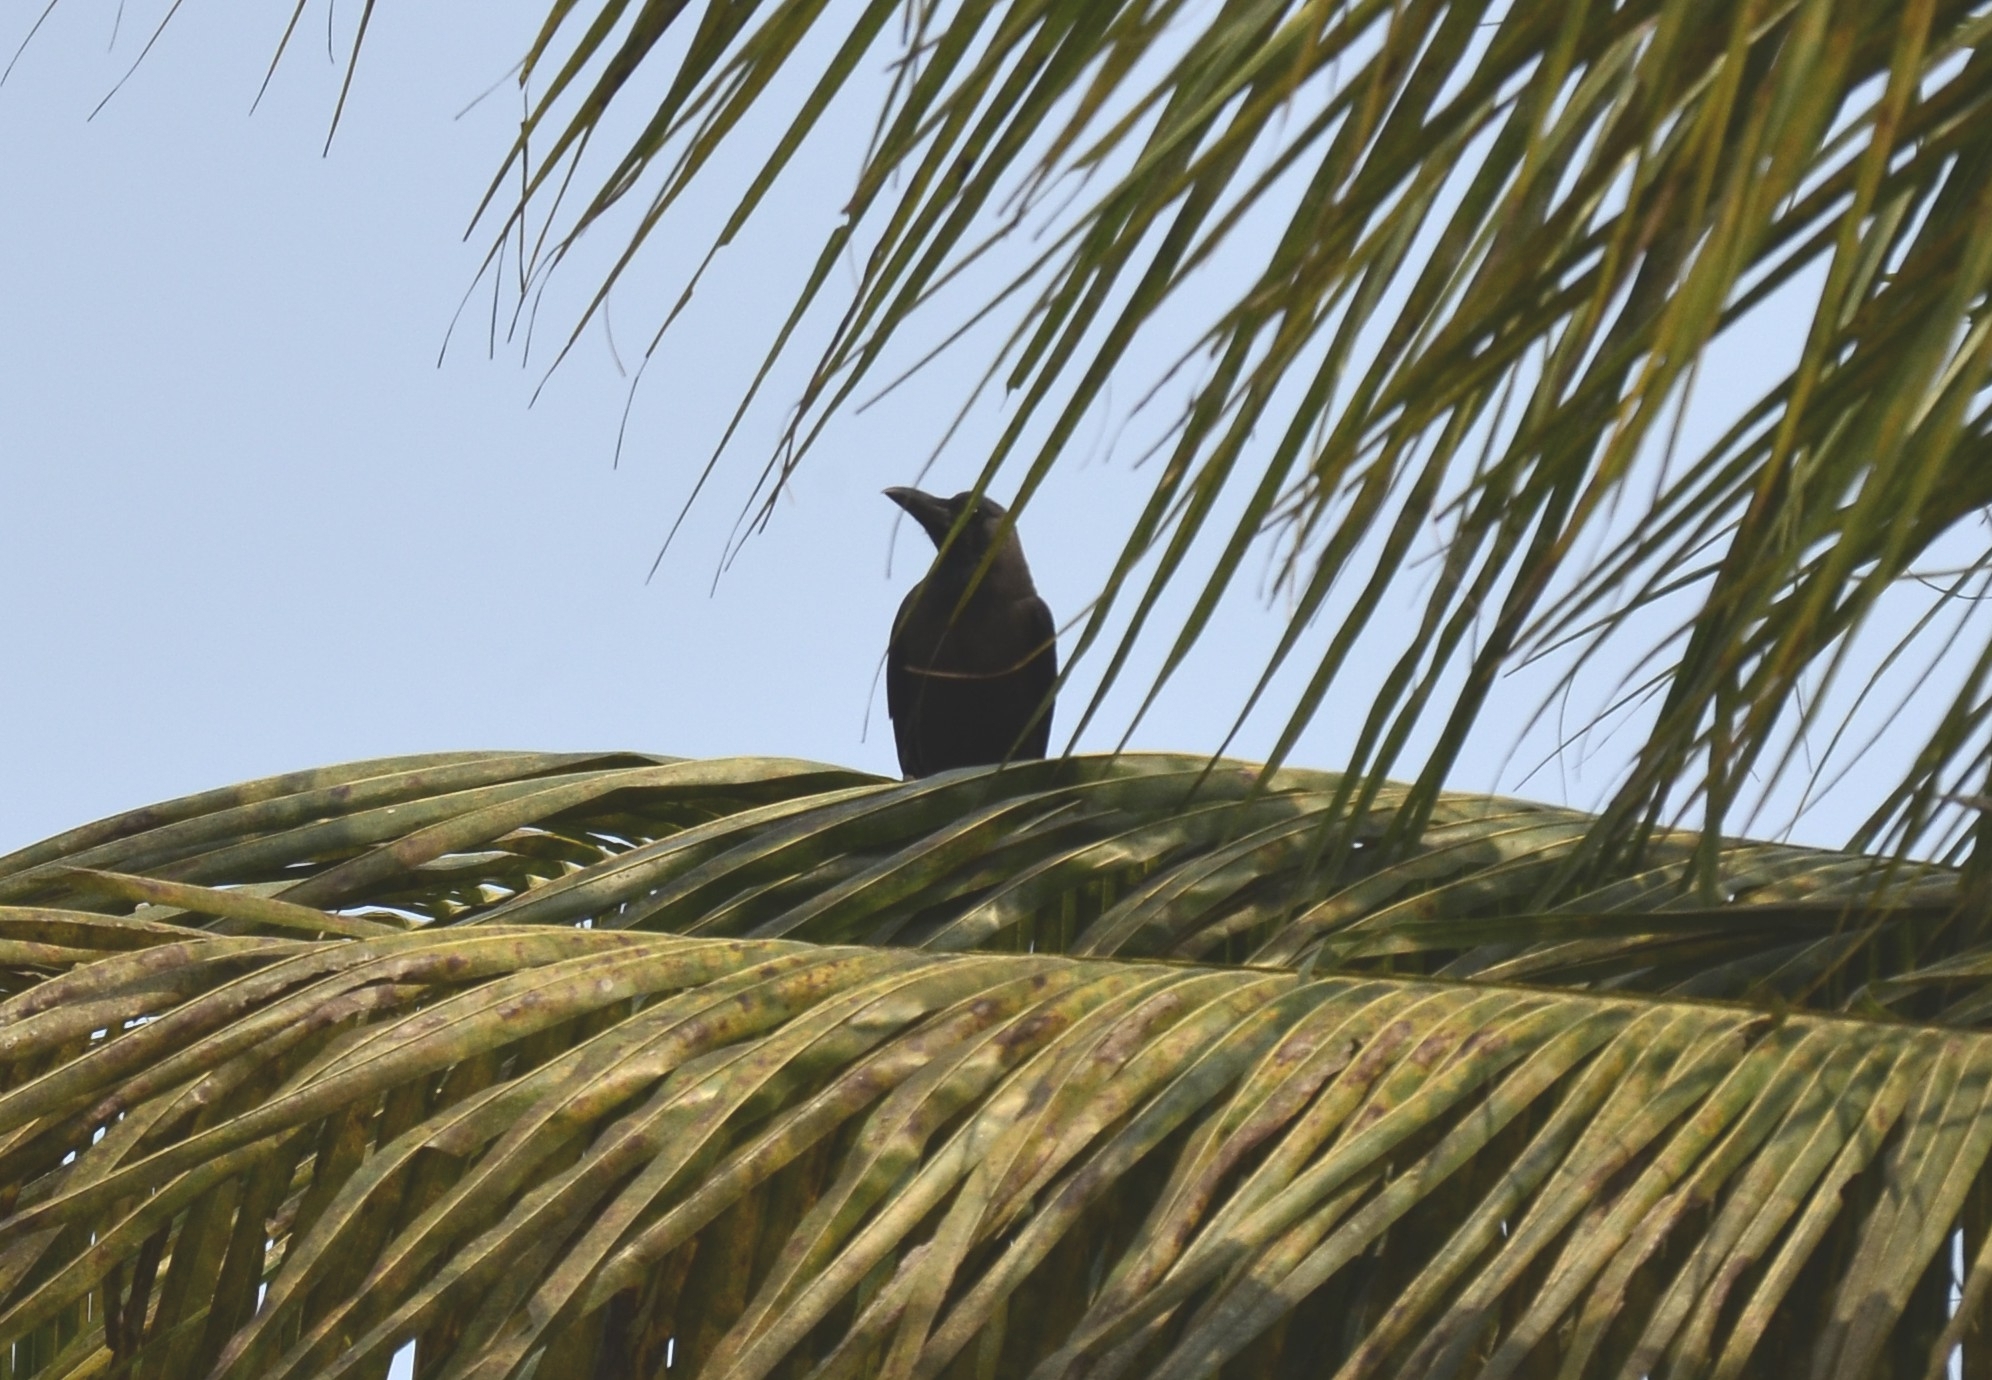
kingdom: Animalia
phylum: Chordata
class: Aves
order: Passeriformes
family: Corvidae
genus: Corvus
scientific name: Corvus splendens
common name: House crow
